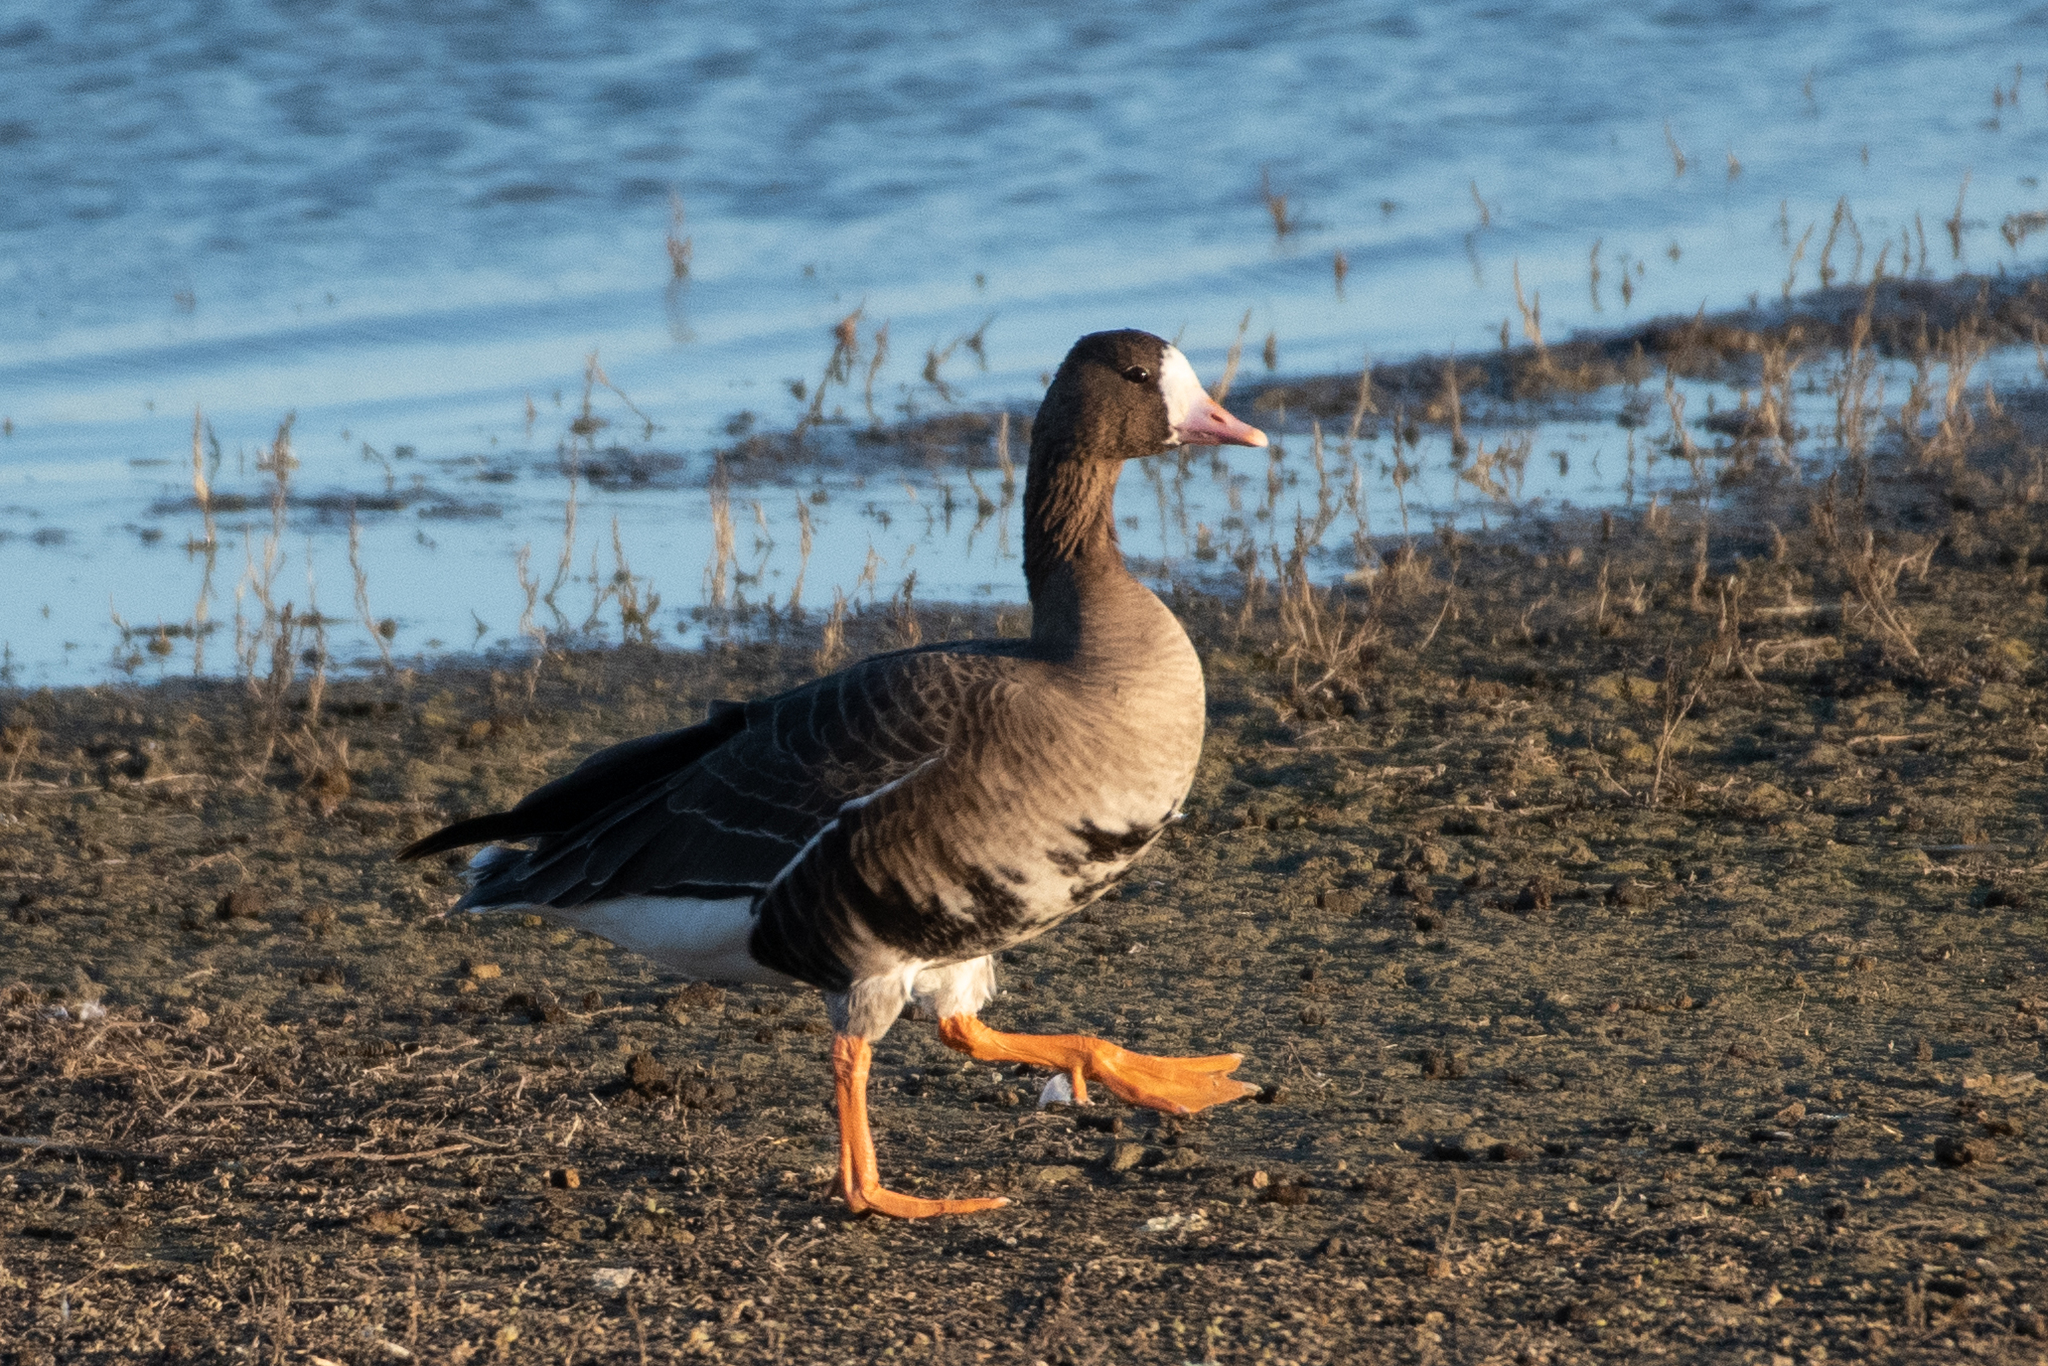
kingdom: Animalia
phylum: Chordata
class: Aves
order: Anseriformes
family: Anatidae
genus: Anser
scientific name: Anser albifrons
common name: Greater white-fronted goose
